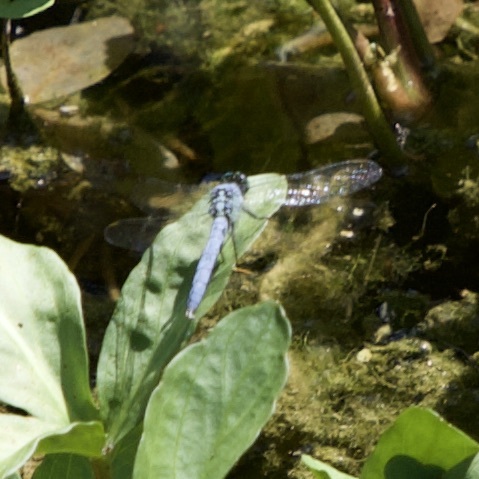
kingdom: Animalia
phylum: Arthropoda
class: Insecta
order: Odonata
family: Libellulidae
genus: Erythemis
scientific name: Erythemis simplicicollis
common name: Eastern pondhawk
